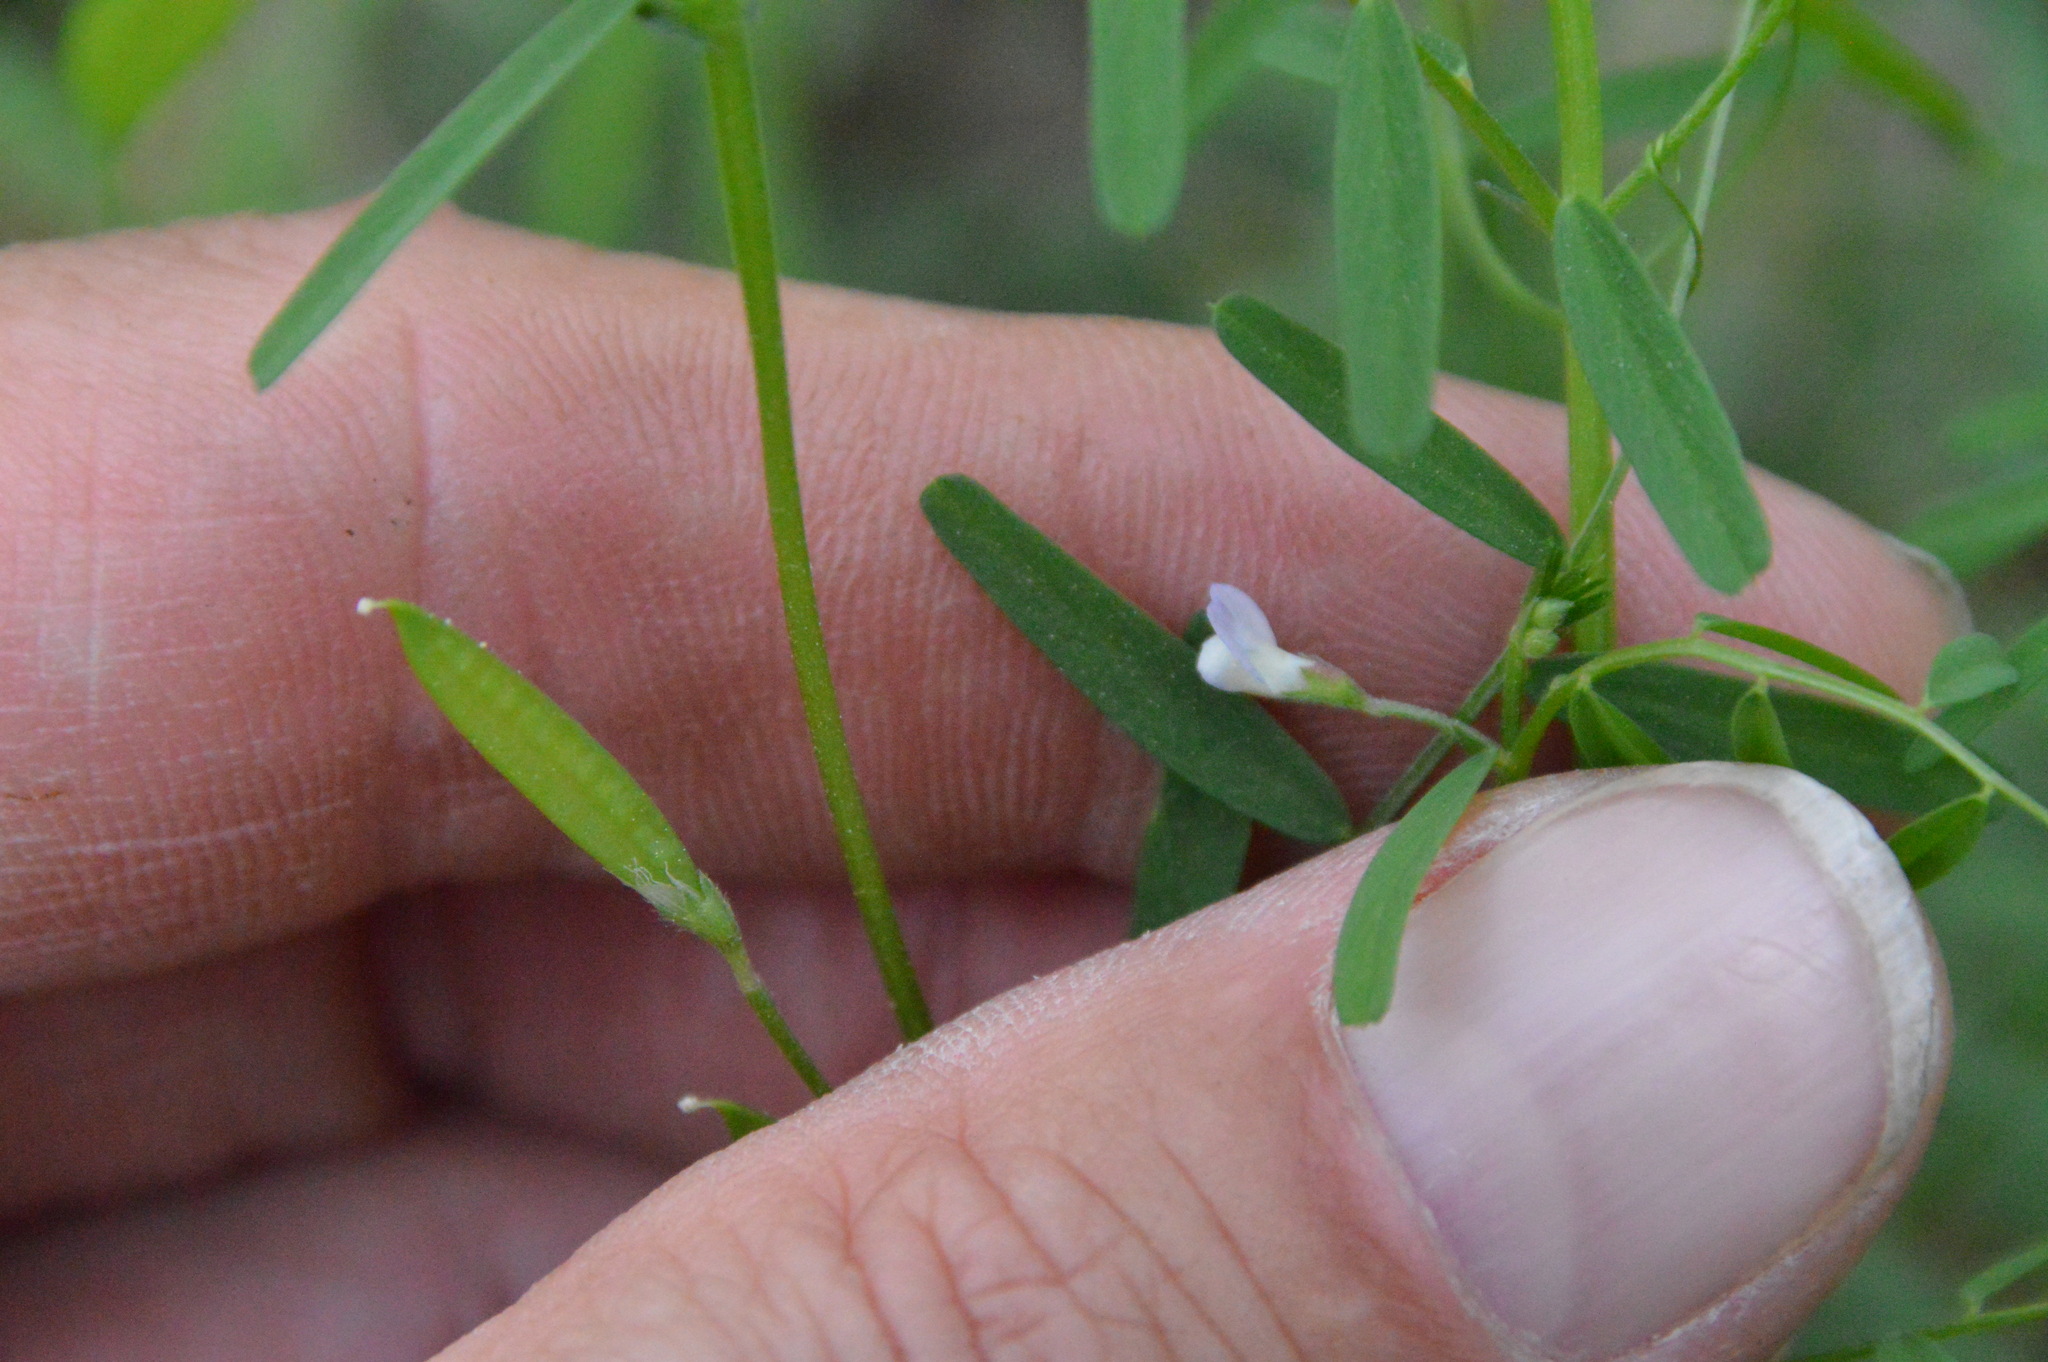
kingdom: Plantae
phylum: Tracheophyta
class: Magnoliopsida
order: Fabales
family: Fabaceae
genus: Vicia
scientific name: Vicia minutiflora
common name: Pygmy-flower vetch
